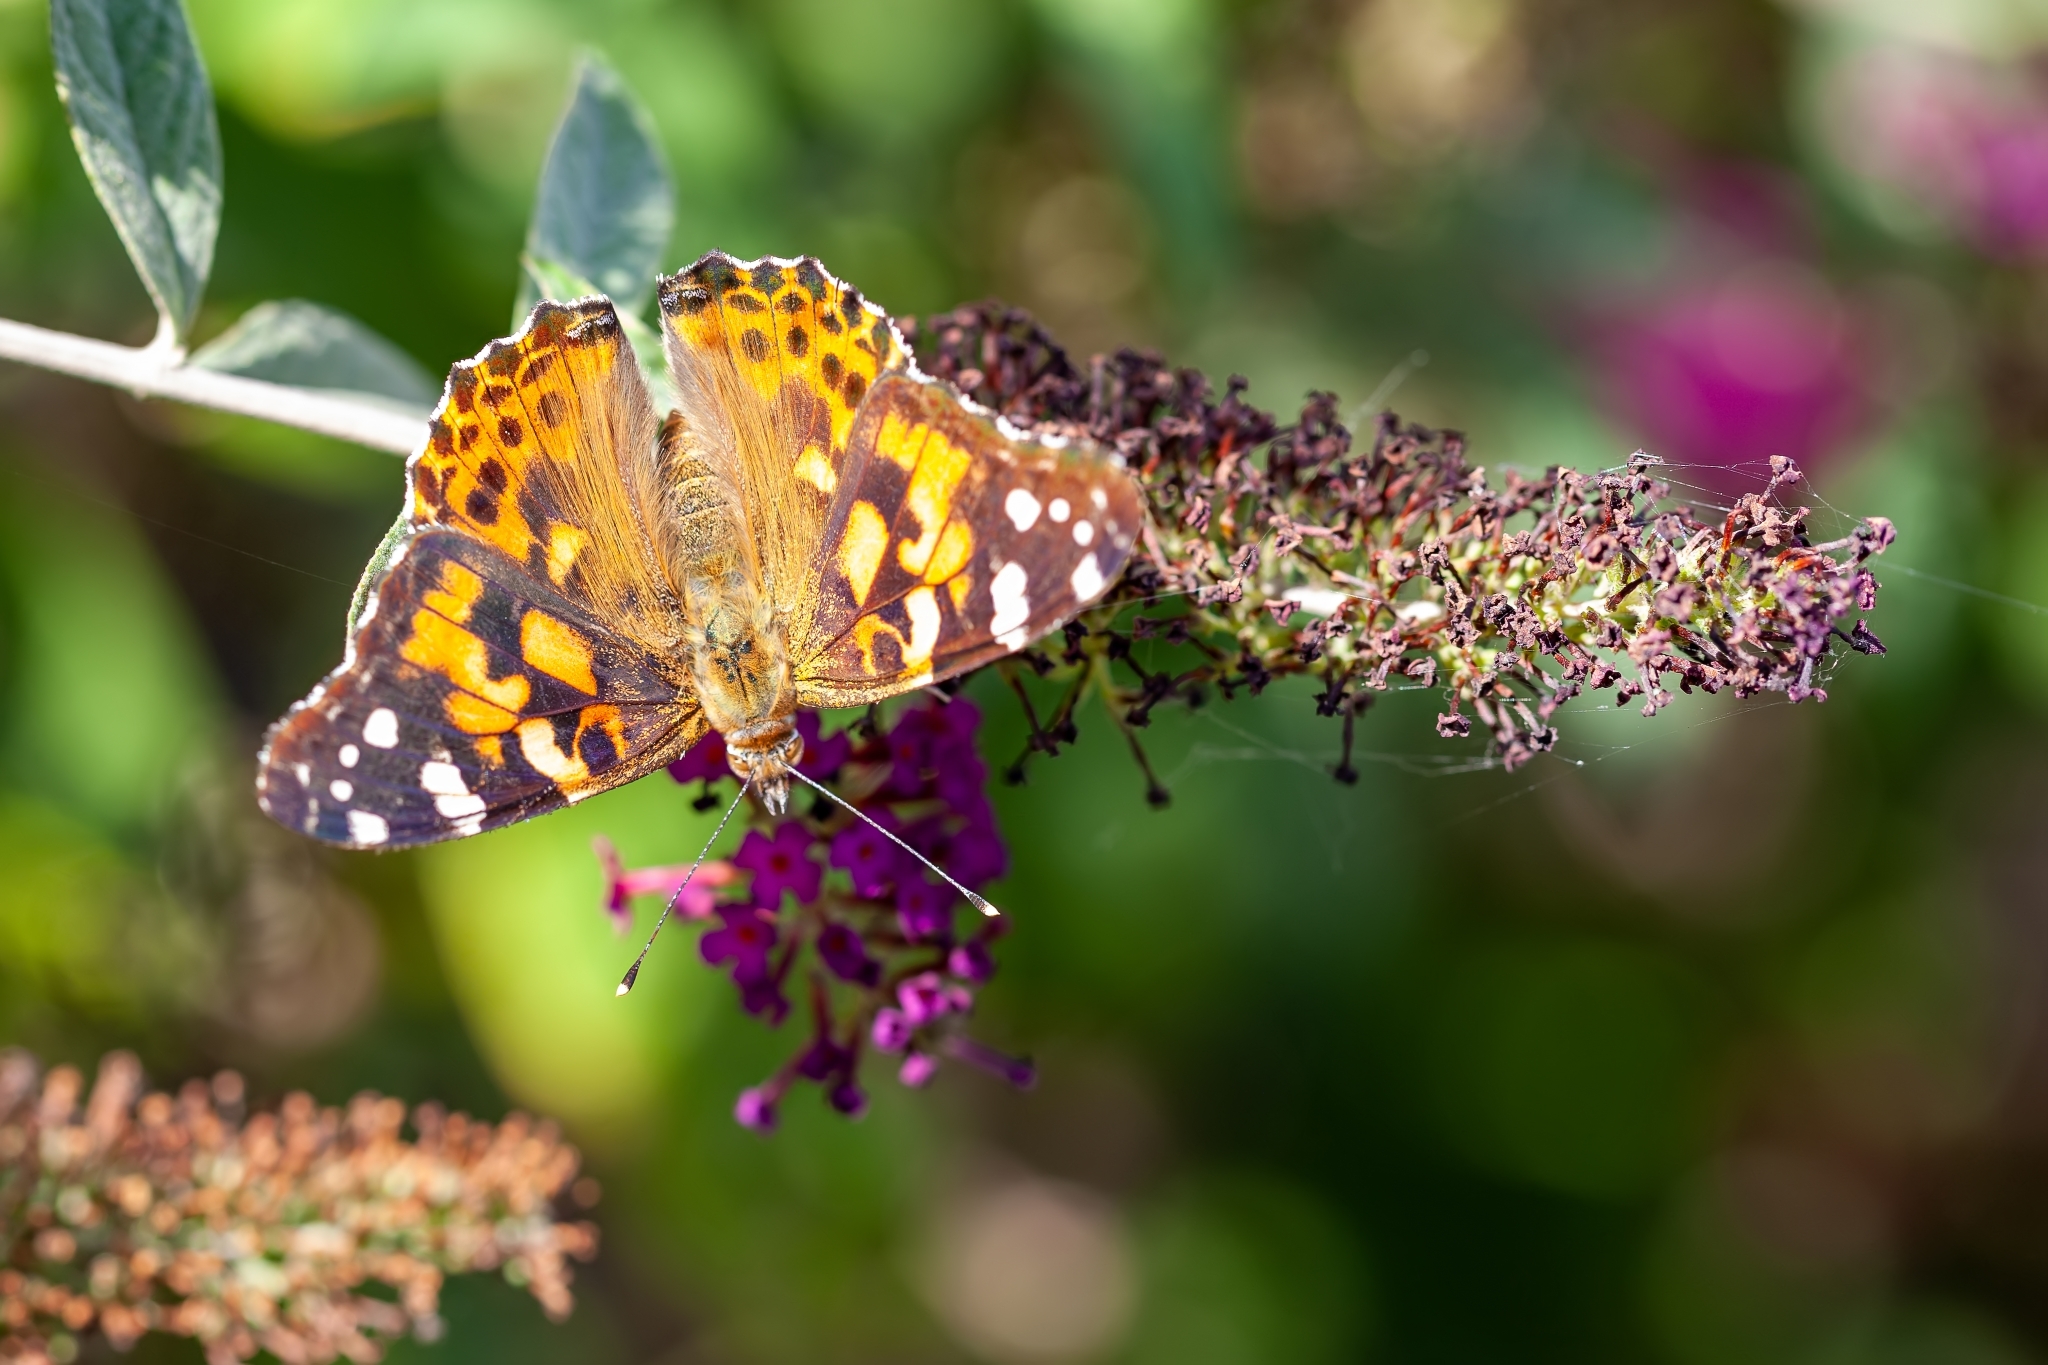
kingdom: Animalia
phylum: Arthropoda
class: Insecta
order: Lepidoptera
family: Nymphalidae
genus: Vanessa
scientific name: Vanessa cardui
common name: Painted lady
